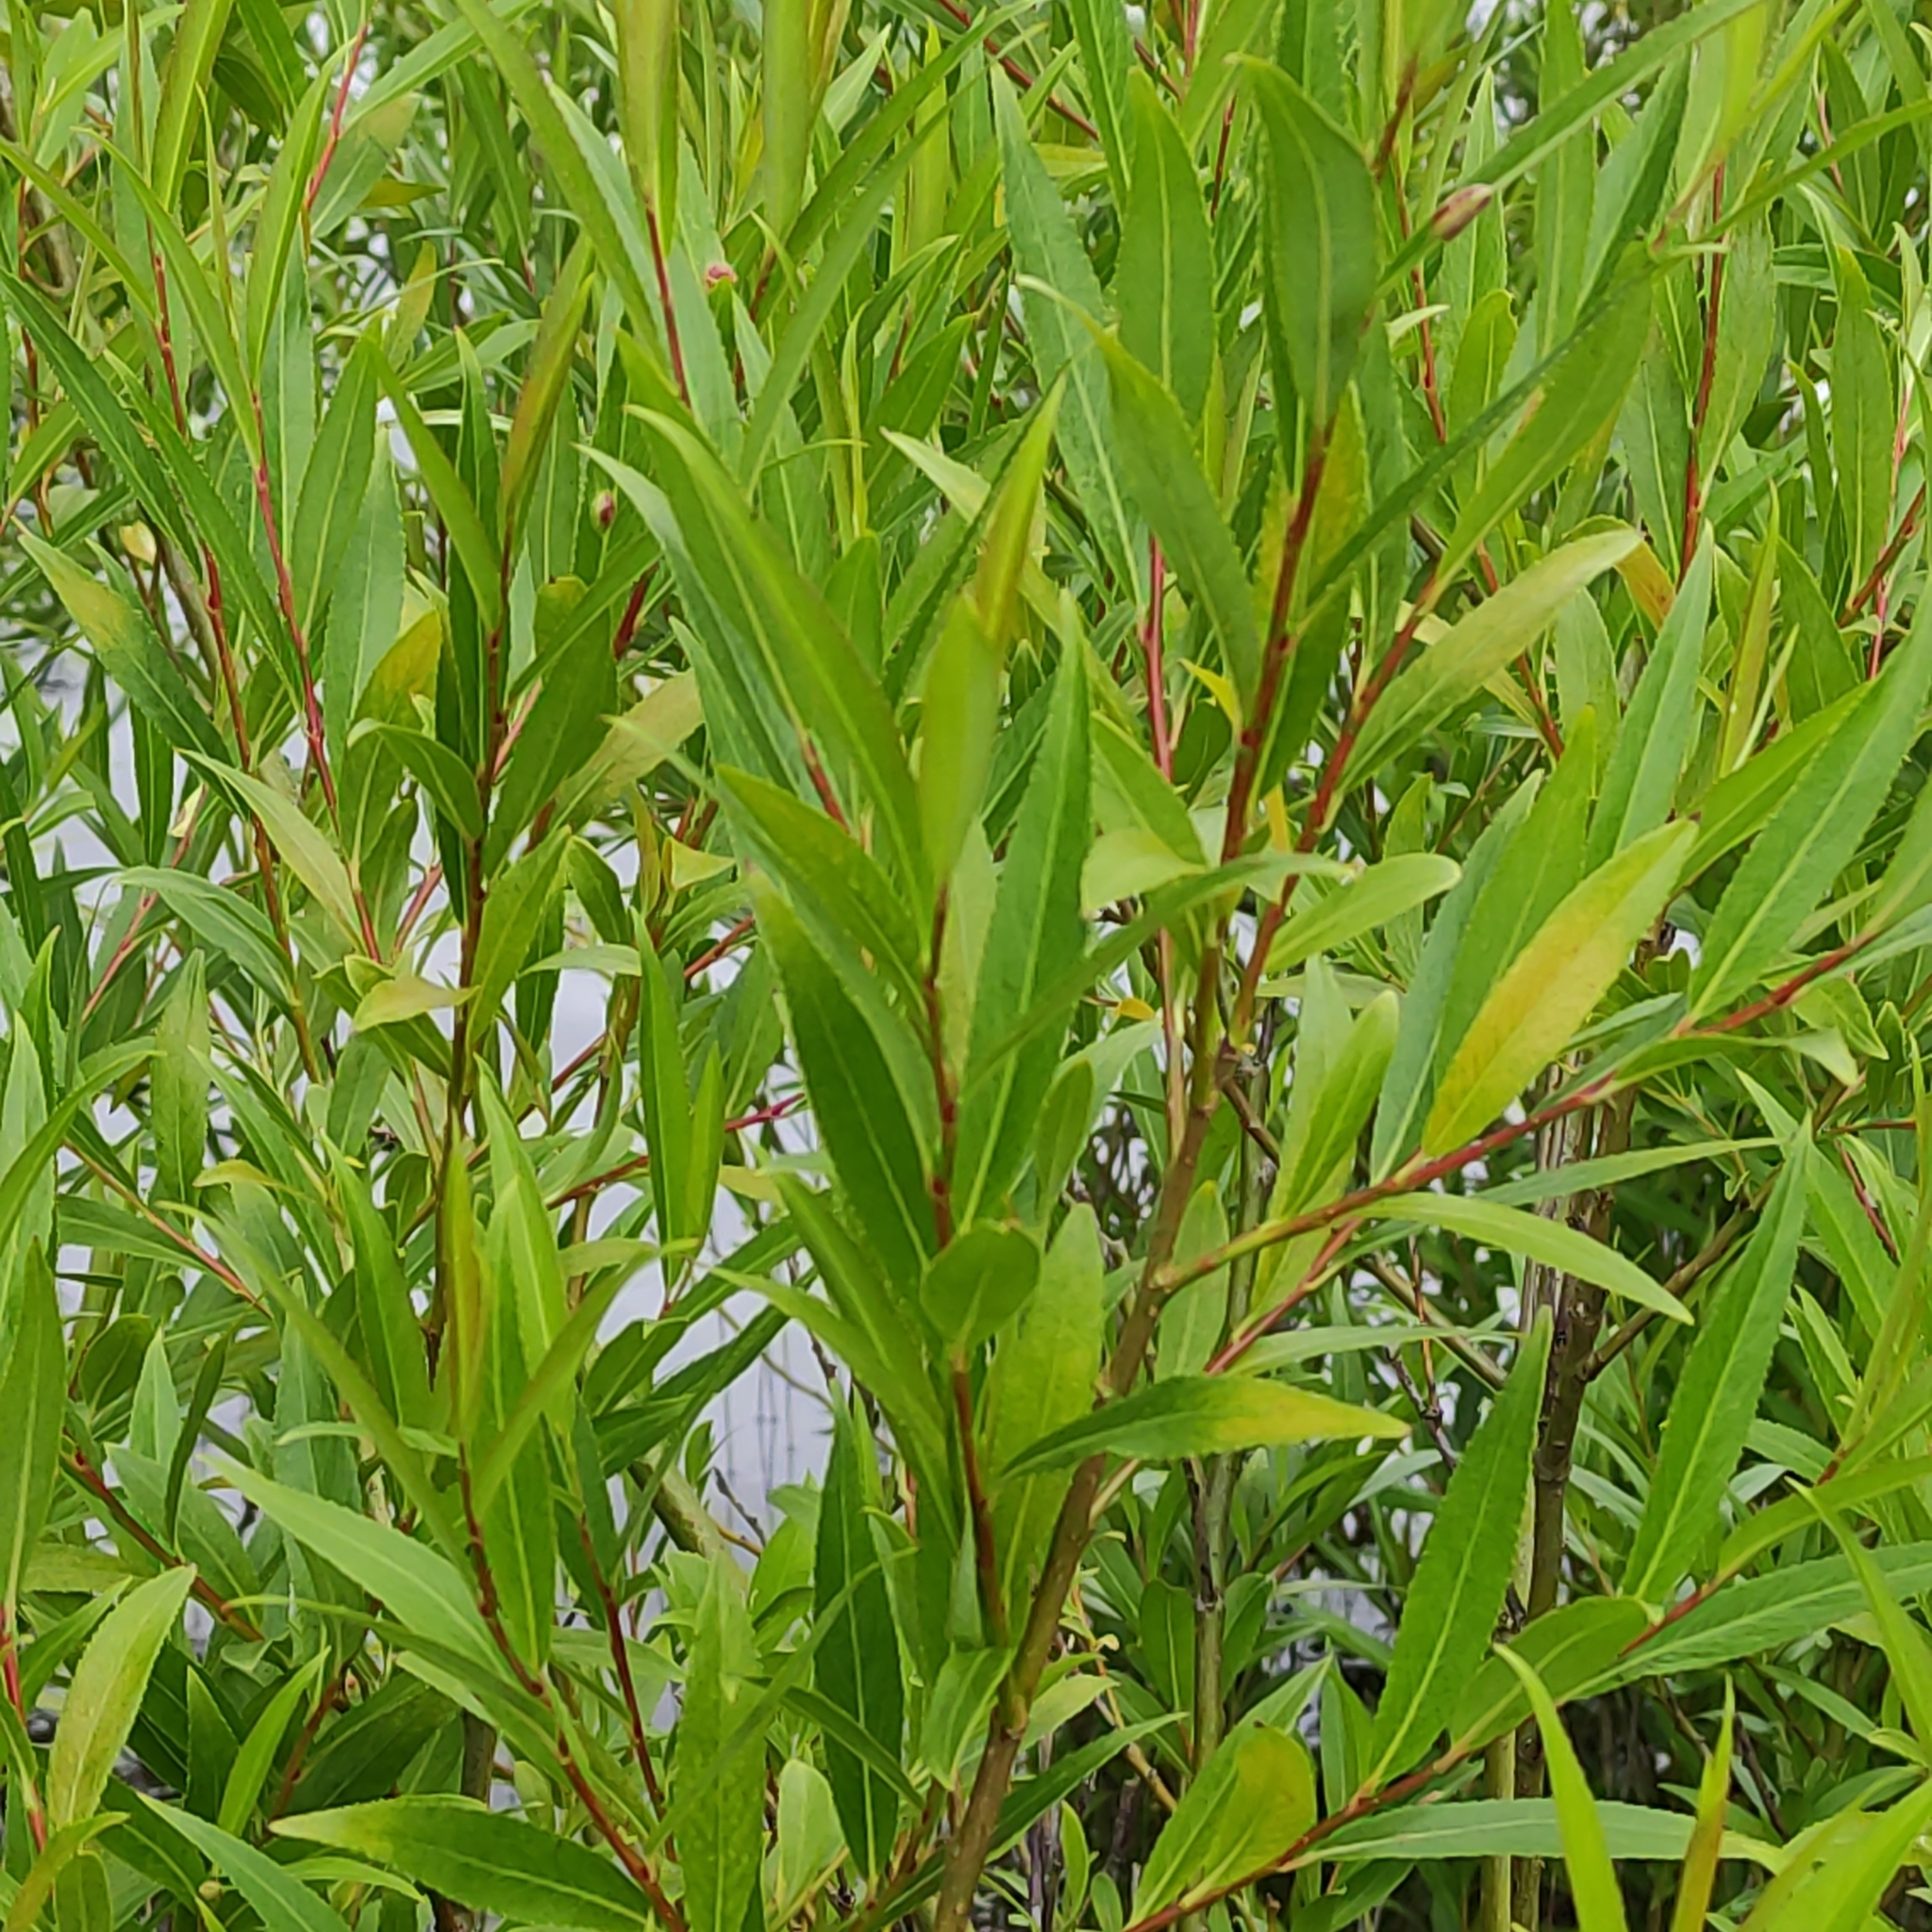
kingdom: Plantae
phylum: Tracheophyta
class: Magnoliopsida
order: Malpighiales
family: Salicaceae
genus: Salix
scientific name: Salix fragilis
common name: Crack willow
